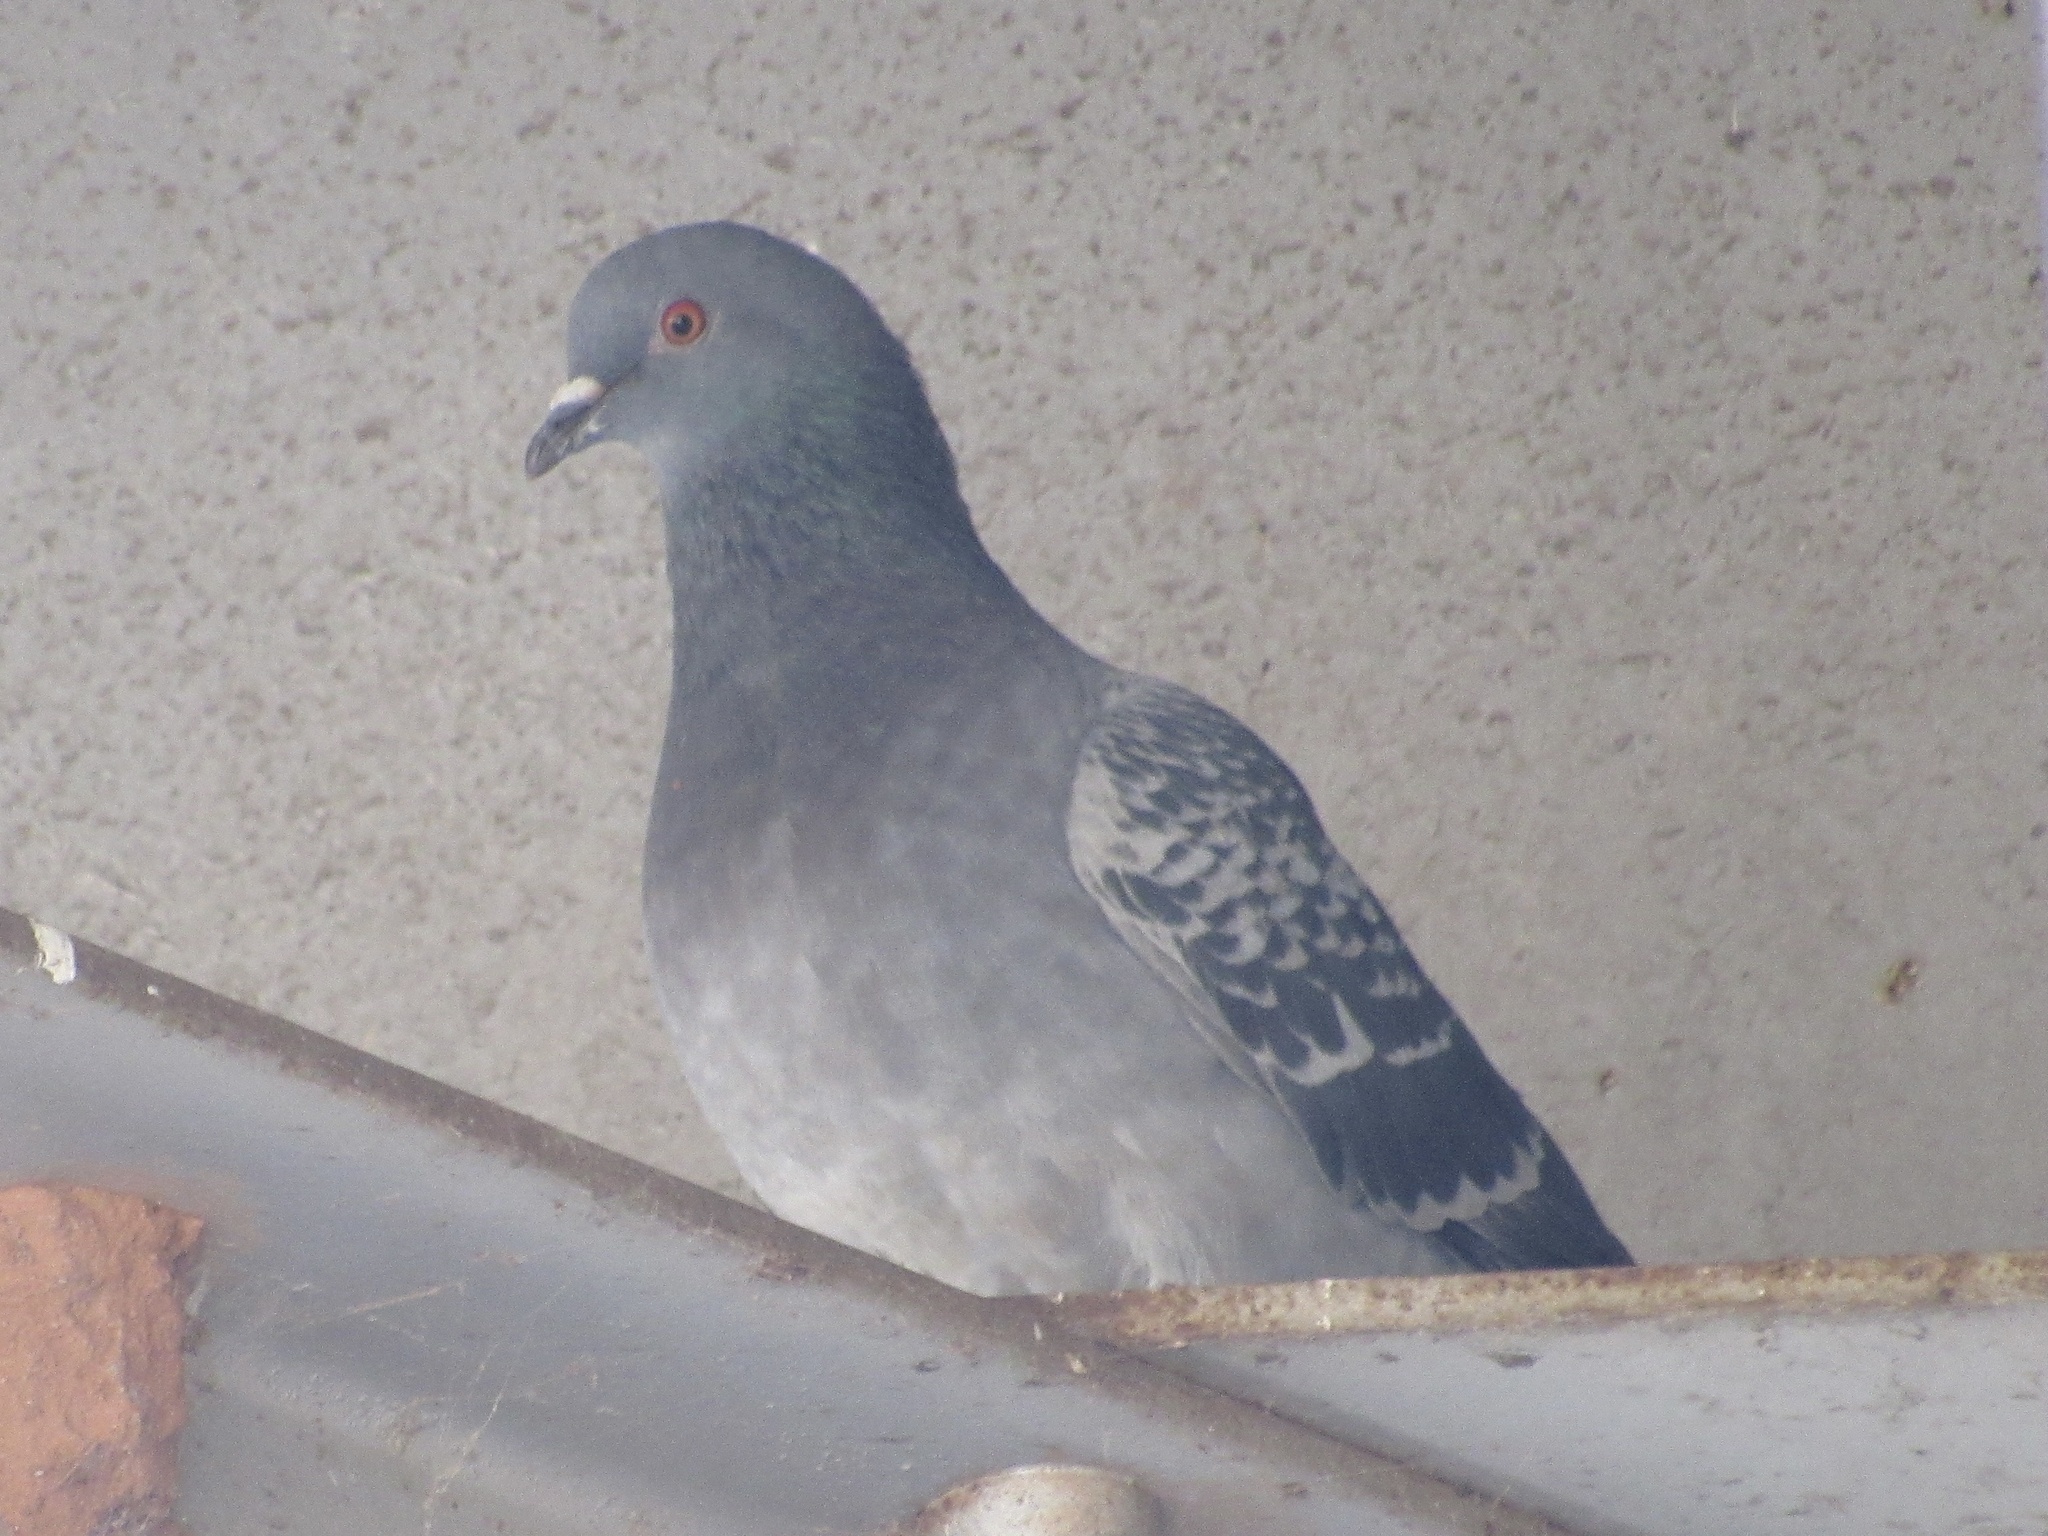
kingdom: Animalia
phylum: Chordata
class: Aves
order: Columbiformes
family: Columbidae
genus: Columba
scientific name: Columba livia
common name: Rock pigeon
